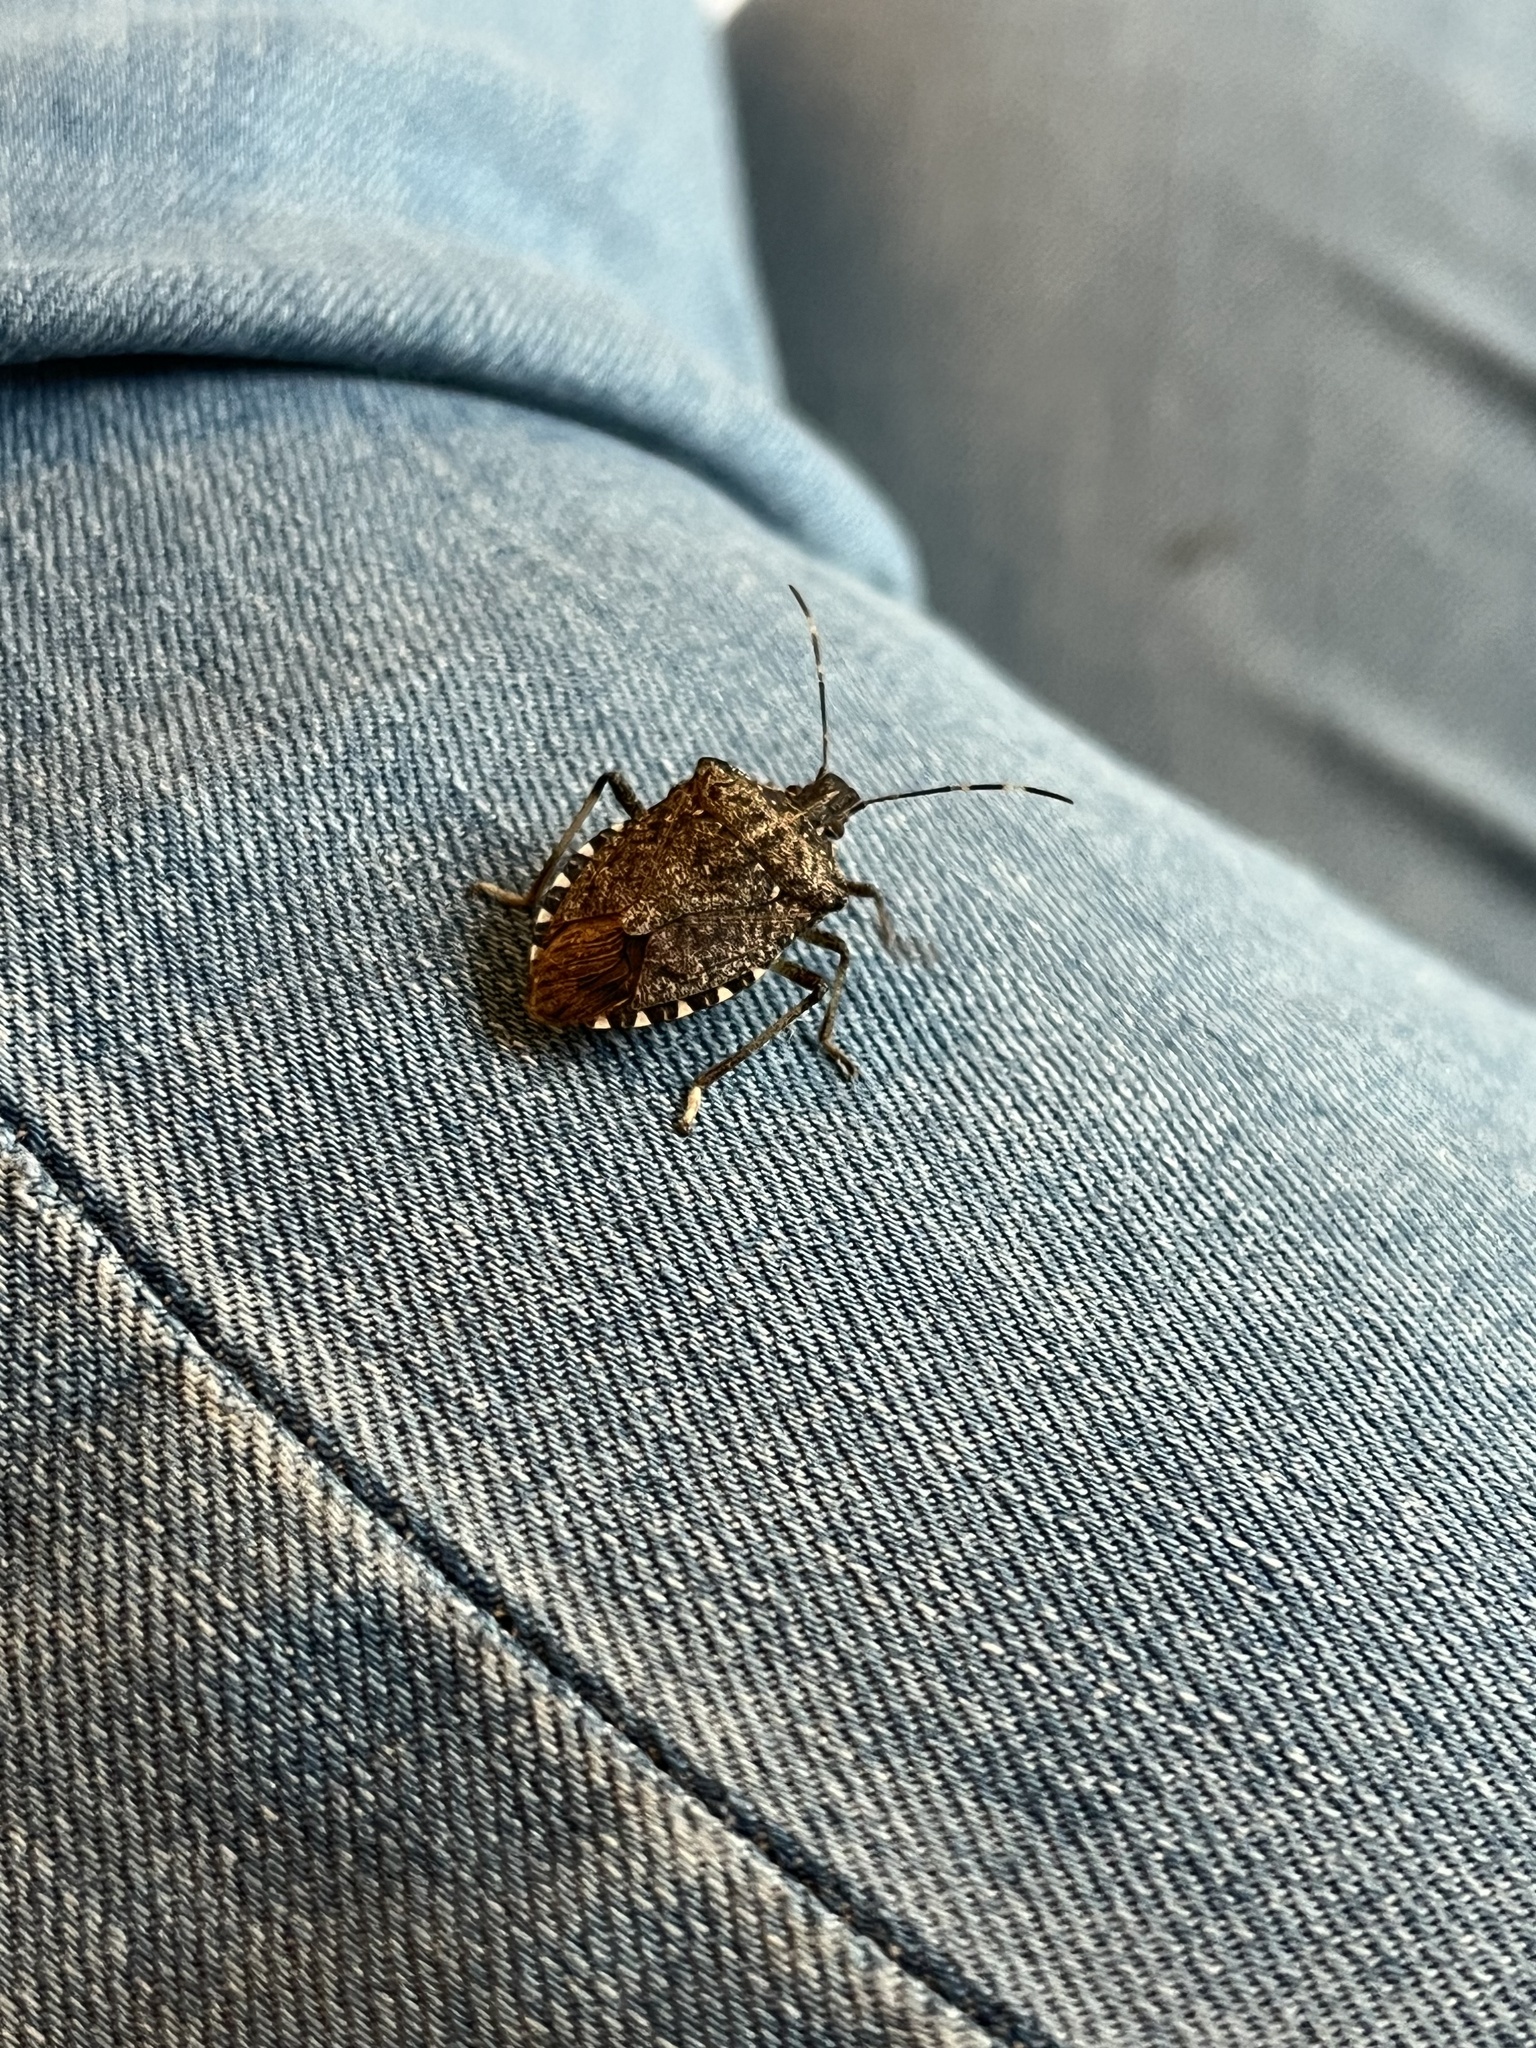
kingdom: Animalia
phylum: Arthropoda
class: Insecta
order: Hemiptera
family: Pentatomidae
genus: Halyomorpha
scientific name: Halyomorpha halys
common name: Brown marmorated stink bug
